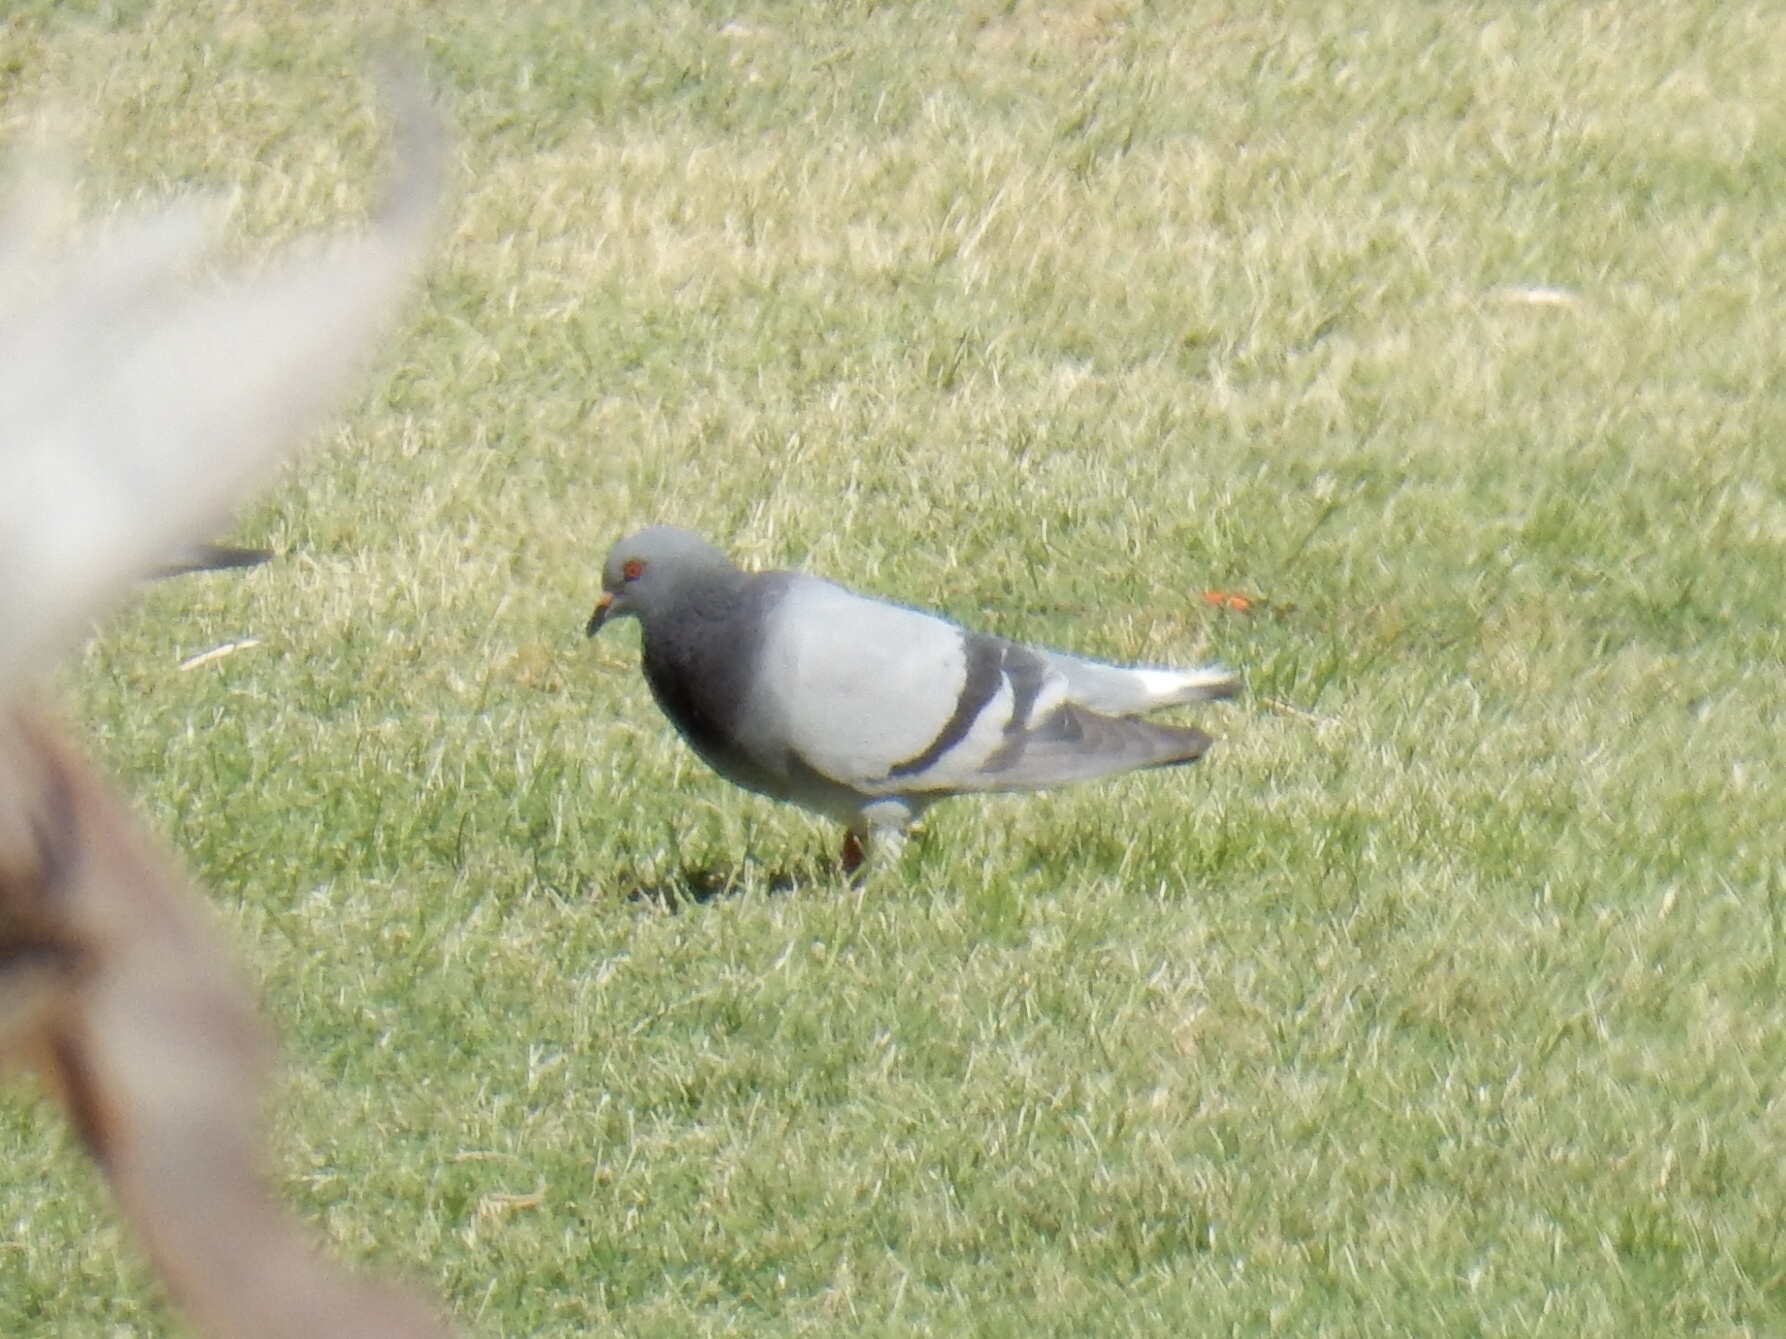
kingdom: Animalia
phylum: Chordata
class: Aves
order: Columbiformes
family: Columbidae
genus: Columba
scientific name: Columba livia
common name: Rock pigeon
